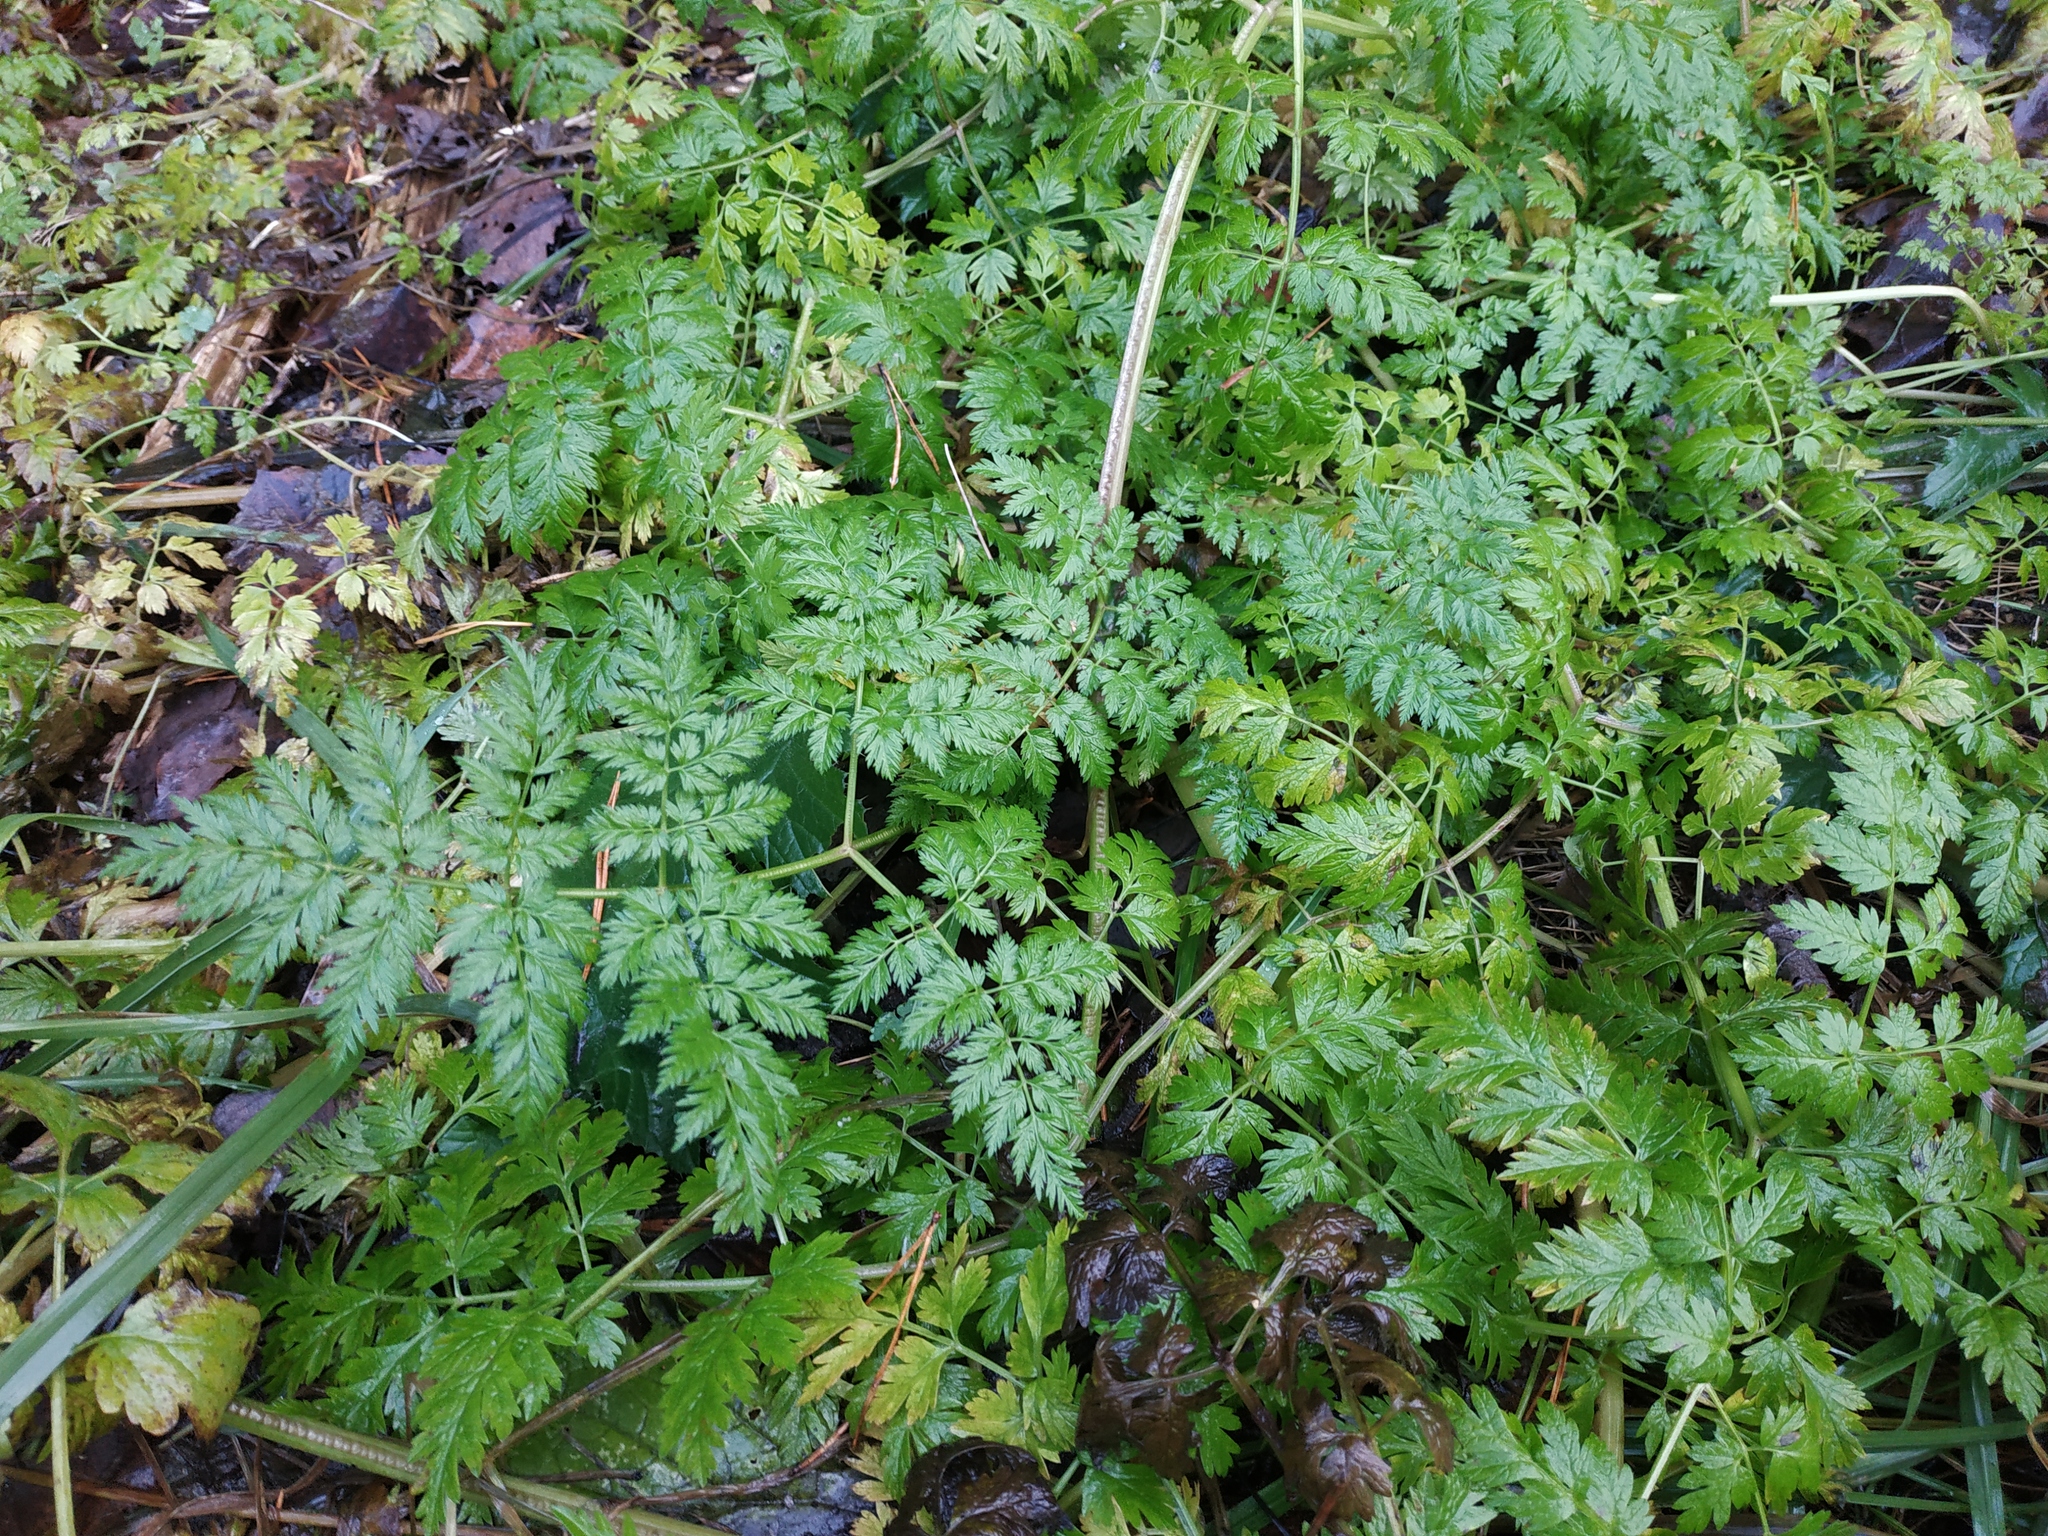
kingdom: Plantae
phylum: Tracheophyta
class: Magnoliopsida
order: Apiales
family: Apiaceae
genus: Anthriscus
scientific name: Anthriscus sylvestris
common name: Cow parsley
